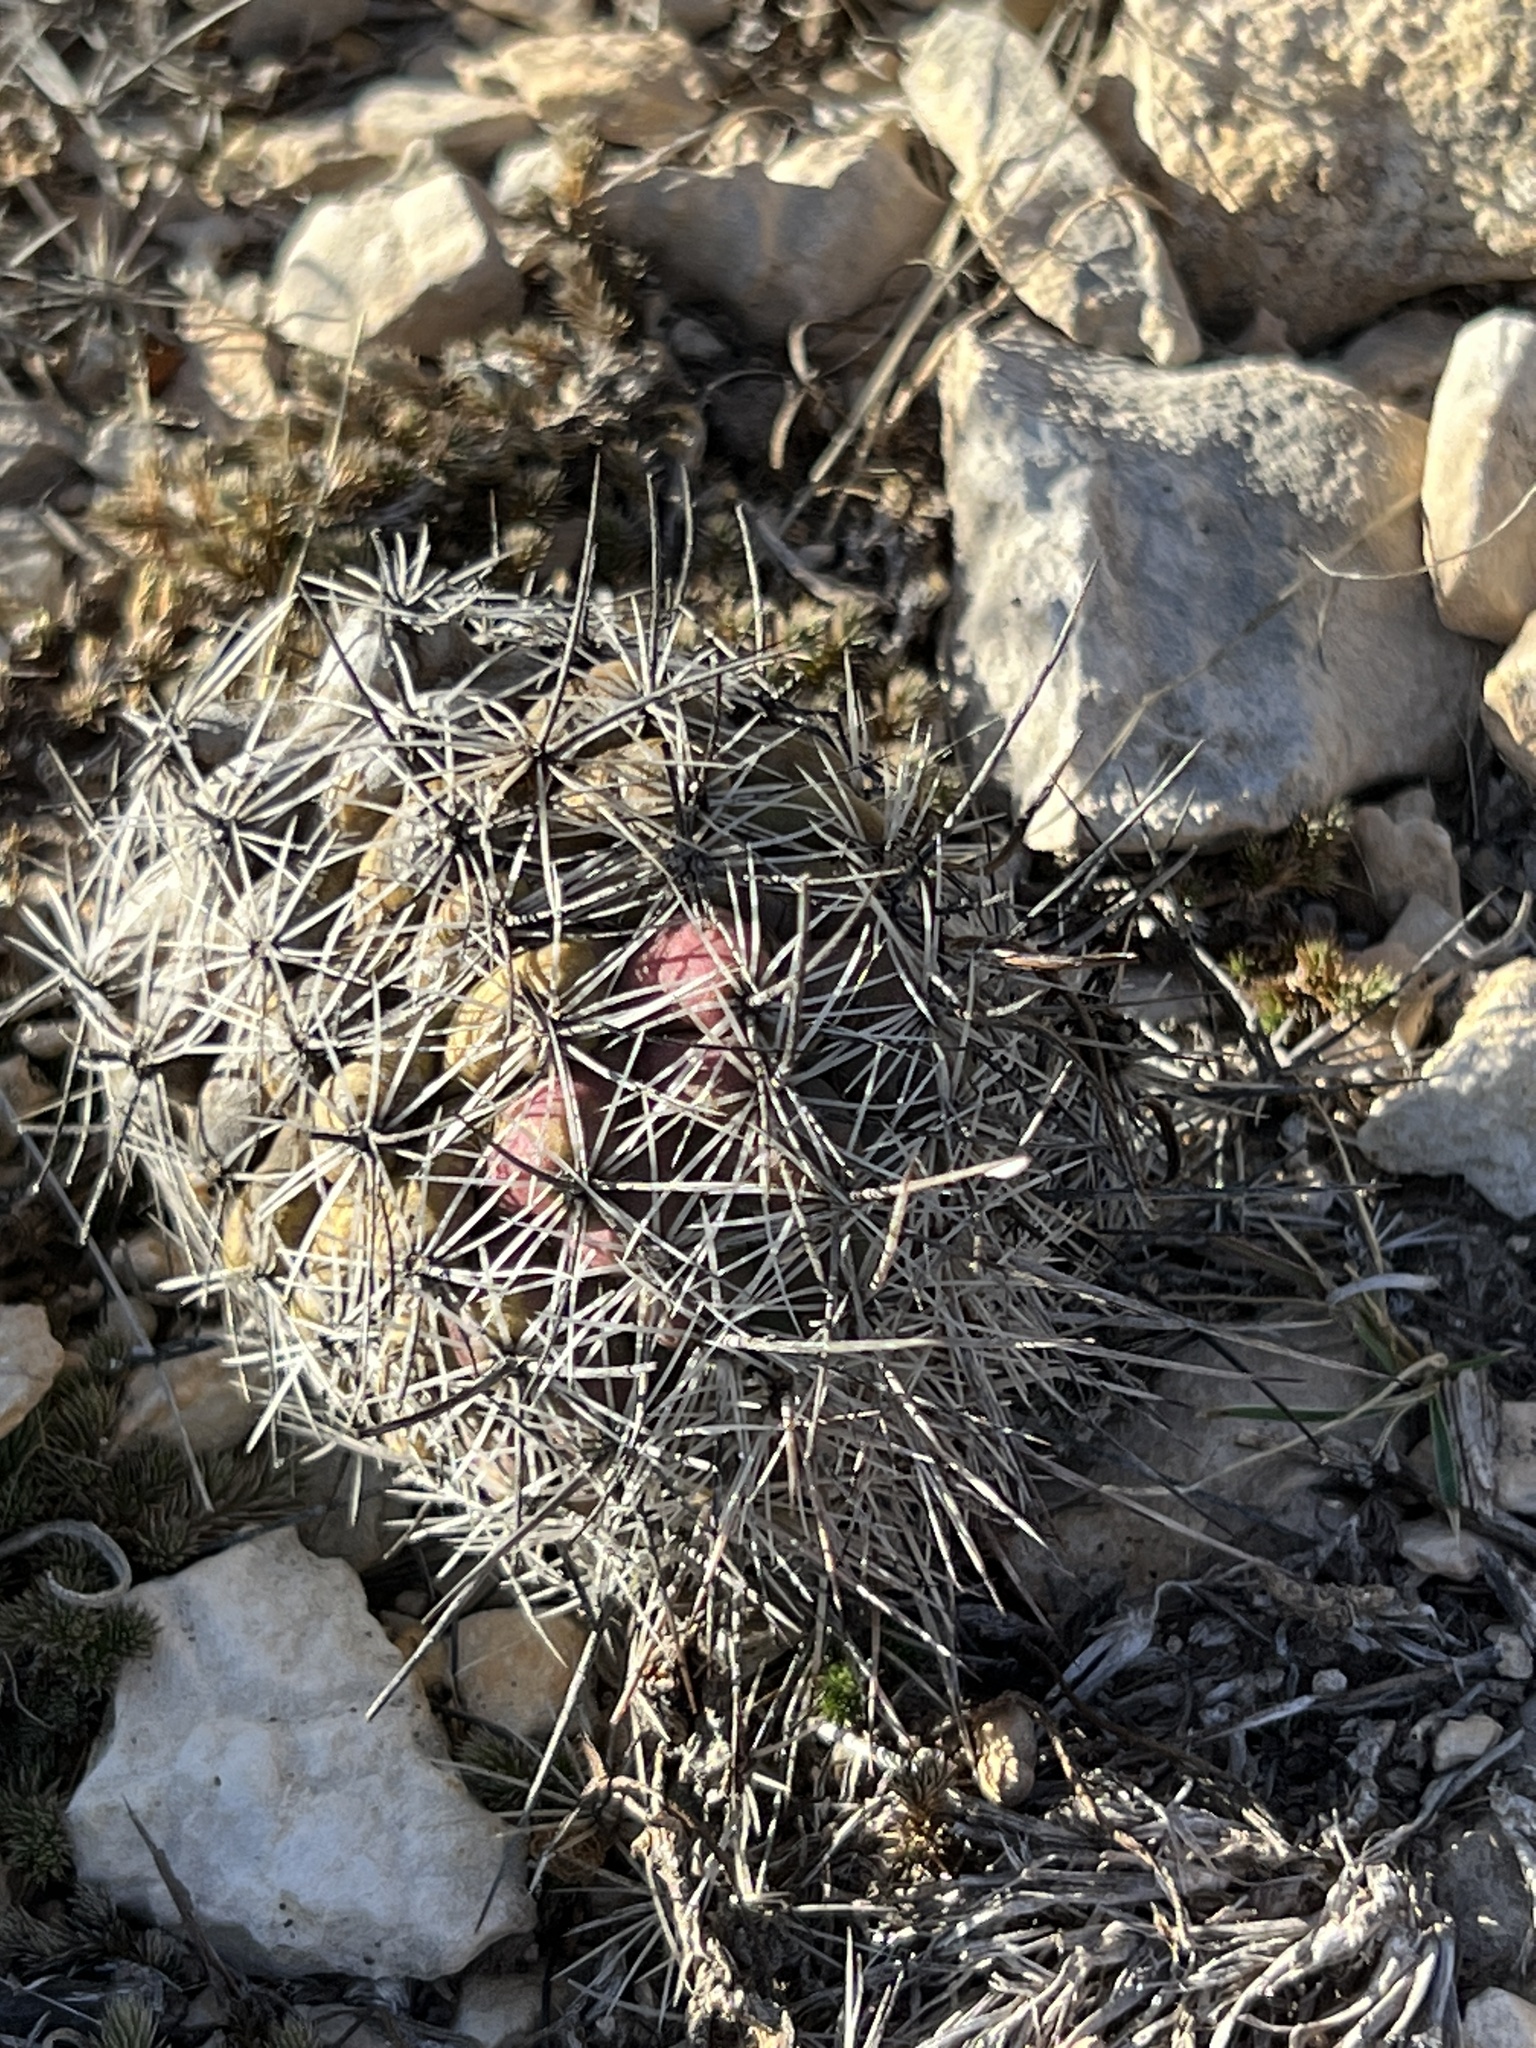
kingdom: Plantae
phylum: Tracheophyta
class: Magnoliopsida
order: Caryophyllales
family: Cactaceae
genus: Cochemiea
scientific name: Cochemiea conoidea
